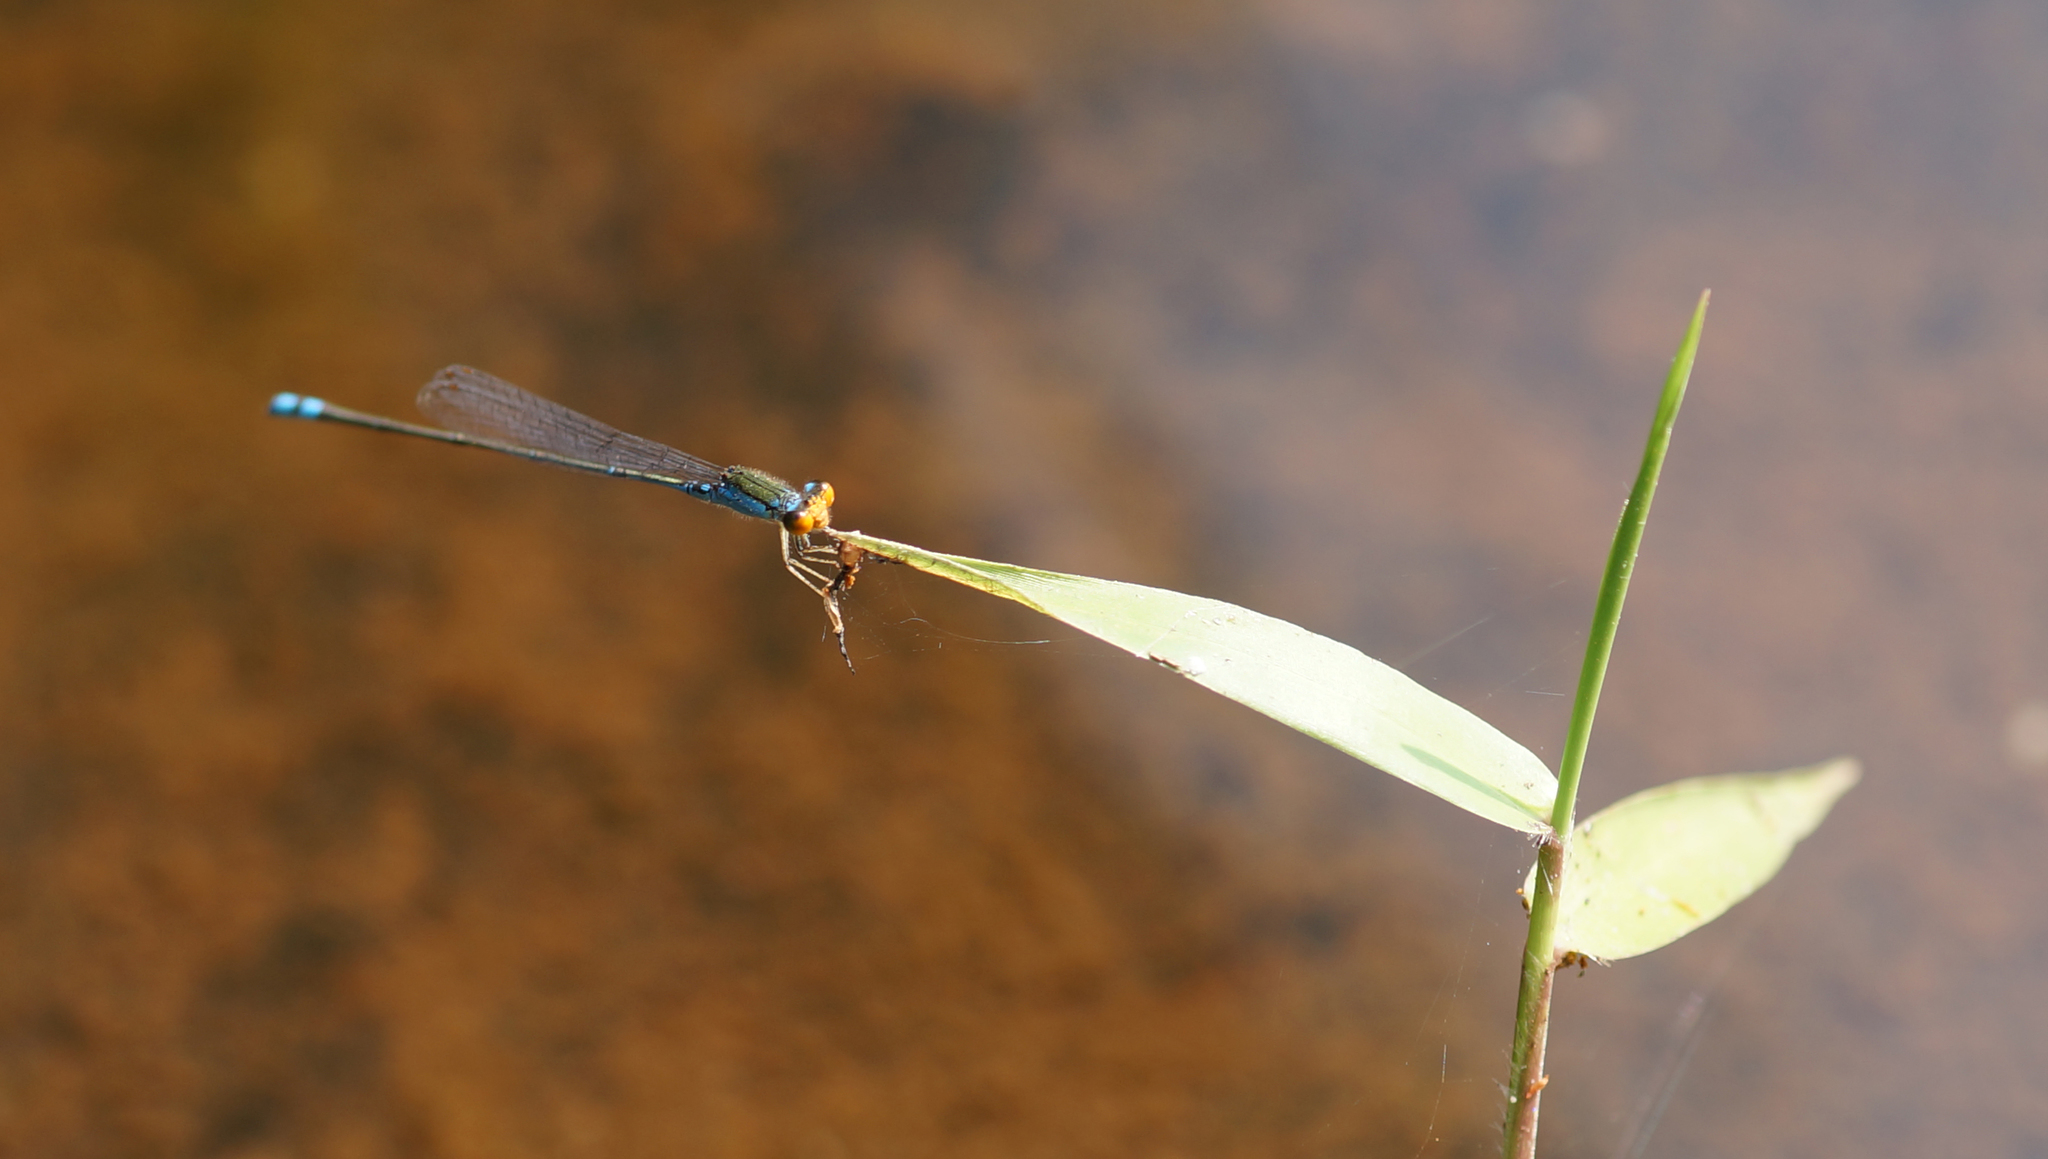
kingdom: Animalia
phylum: Arthropoda
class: Insecta
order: Odonata
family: Coenagrionidae
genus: Pseudagrion
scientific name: Pseudagrion rubriceps
